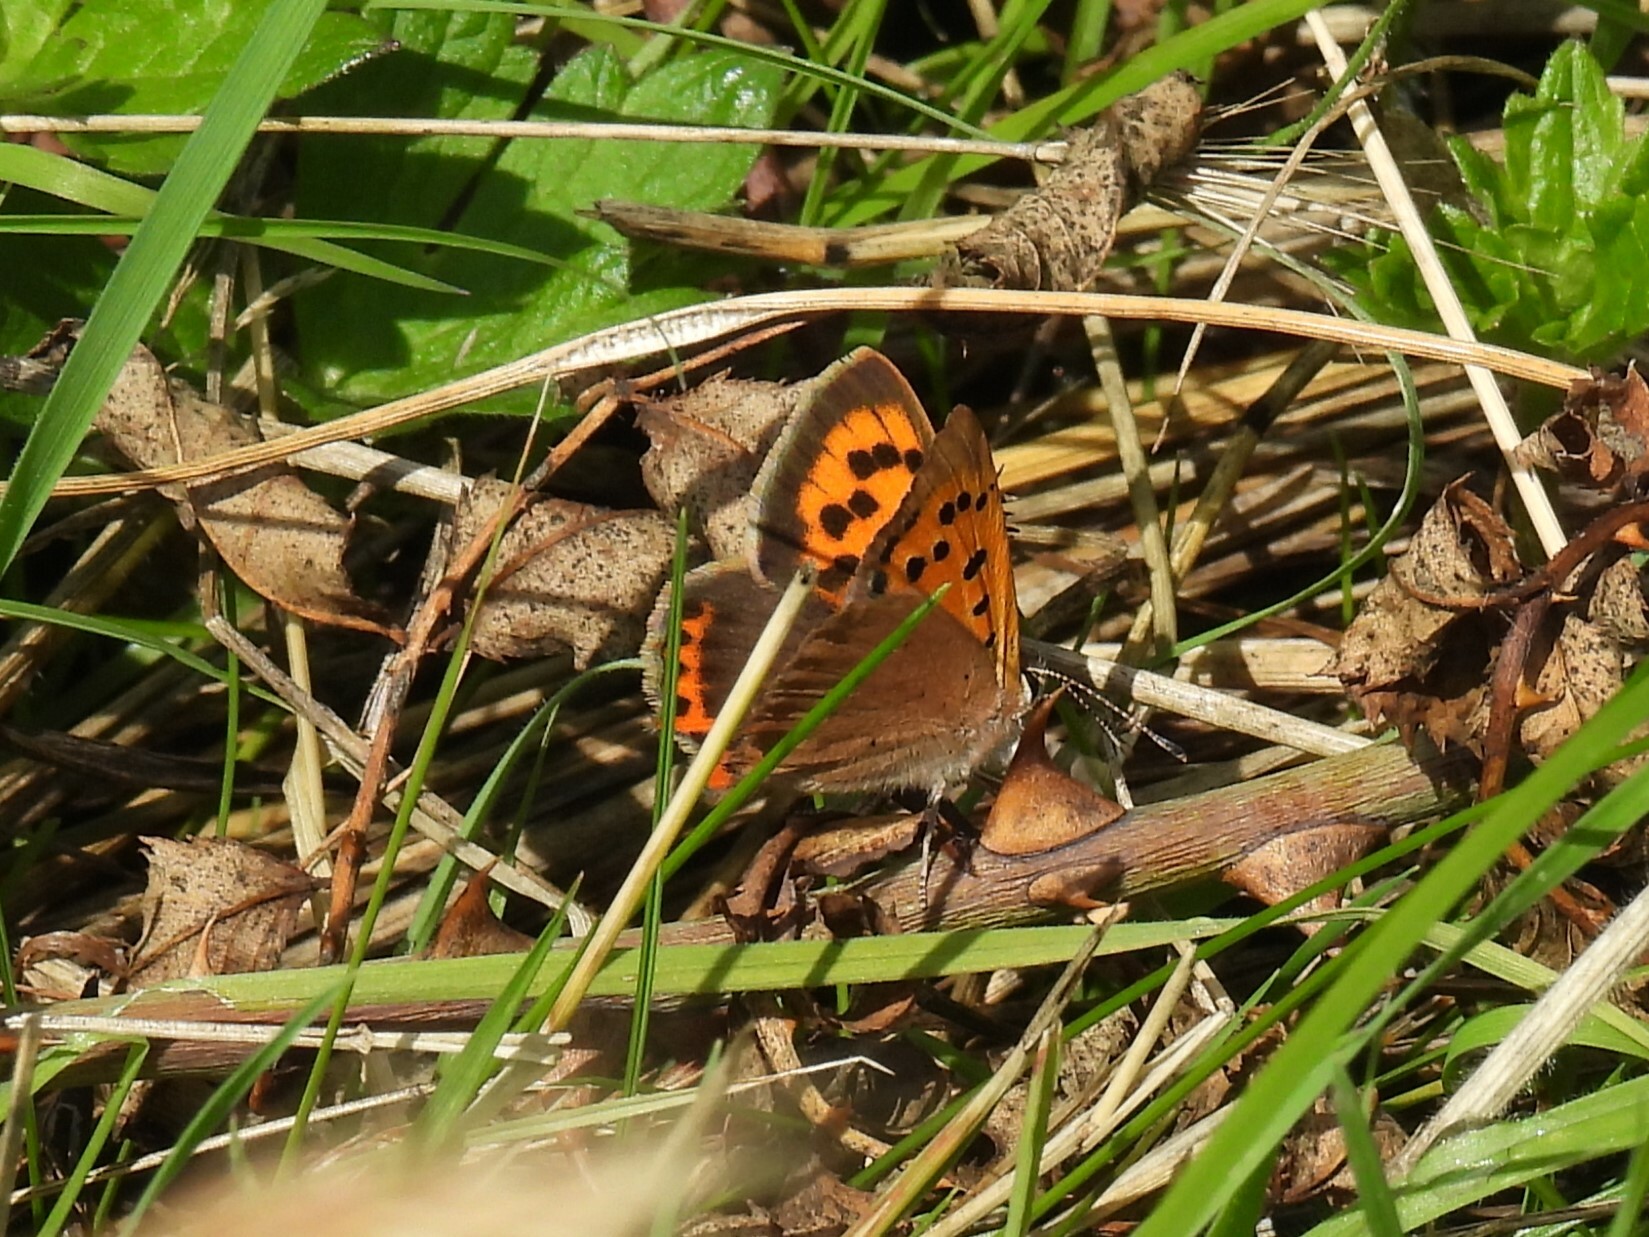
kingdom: Animalia
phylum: Arthropoda
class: Insecta
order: Lepidoptera
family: Lycaenidae
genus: Lycaena
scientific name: Lycaena phlaeas
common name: Small copper
